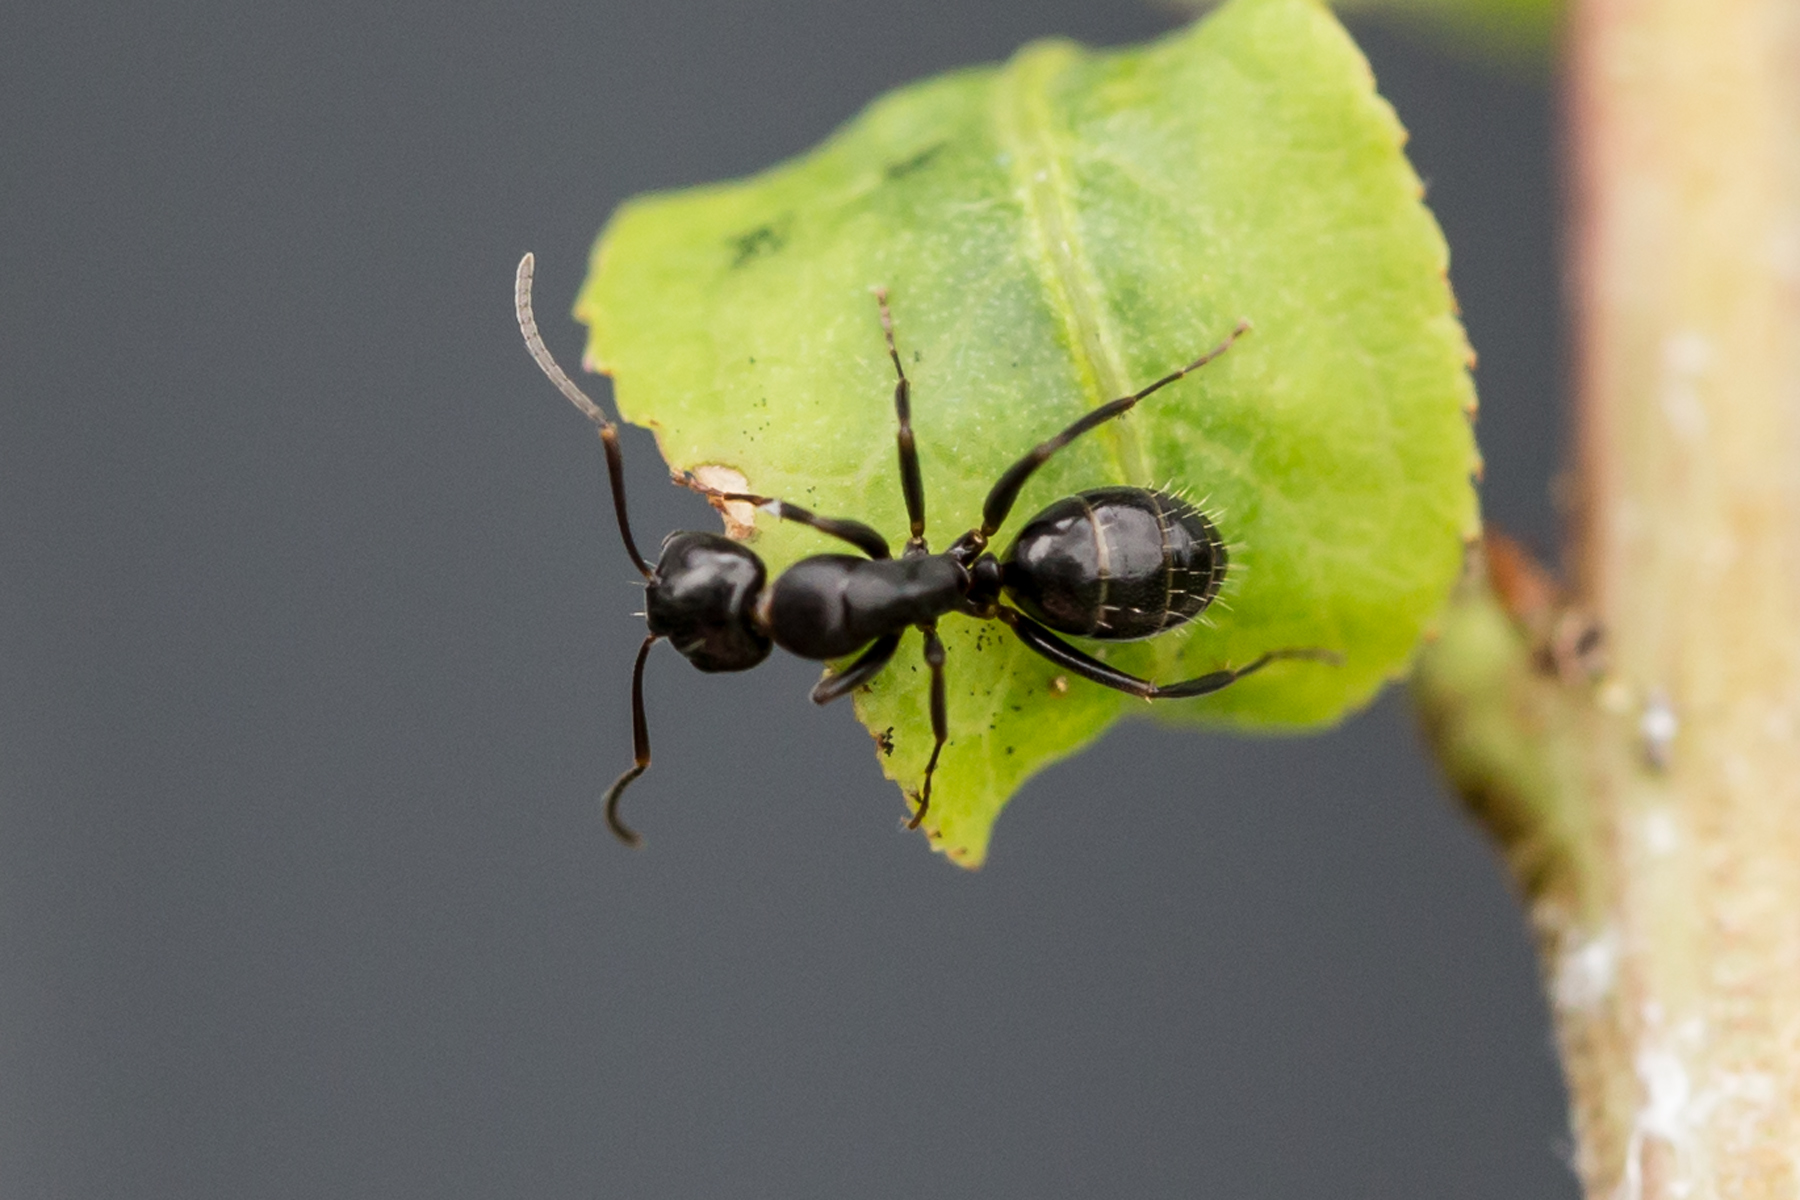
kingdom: Animalia
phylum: Arthropoda
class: Insecta
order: Hymenoptera
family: Formicidae
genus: Camponotus
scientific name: Camponotus nearcticus
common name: Smaller carpenter ant
